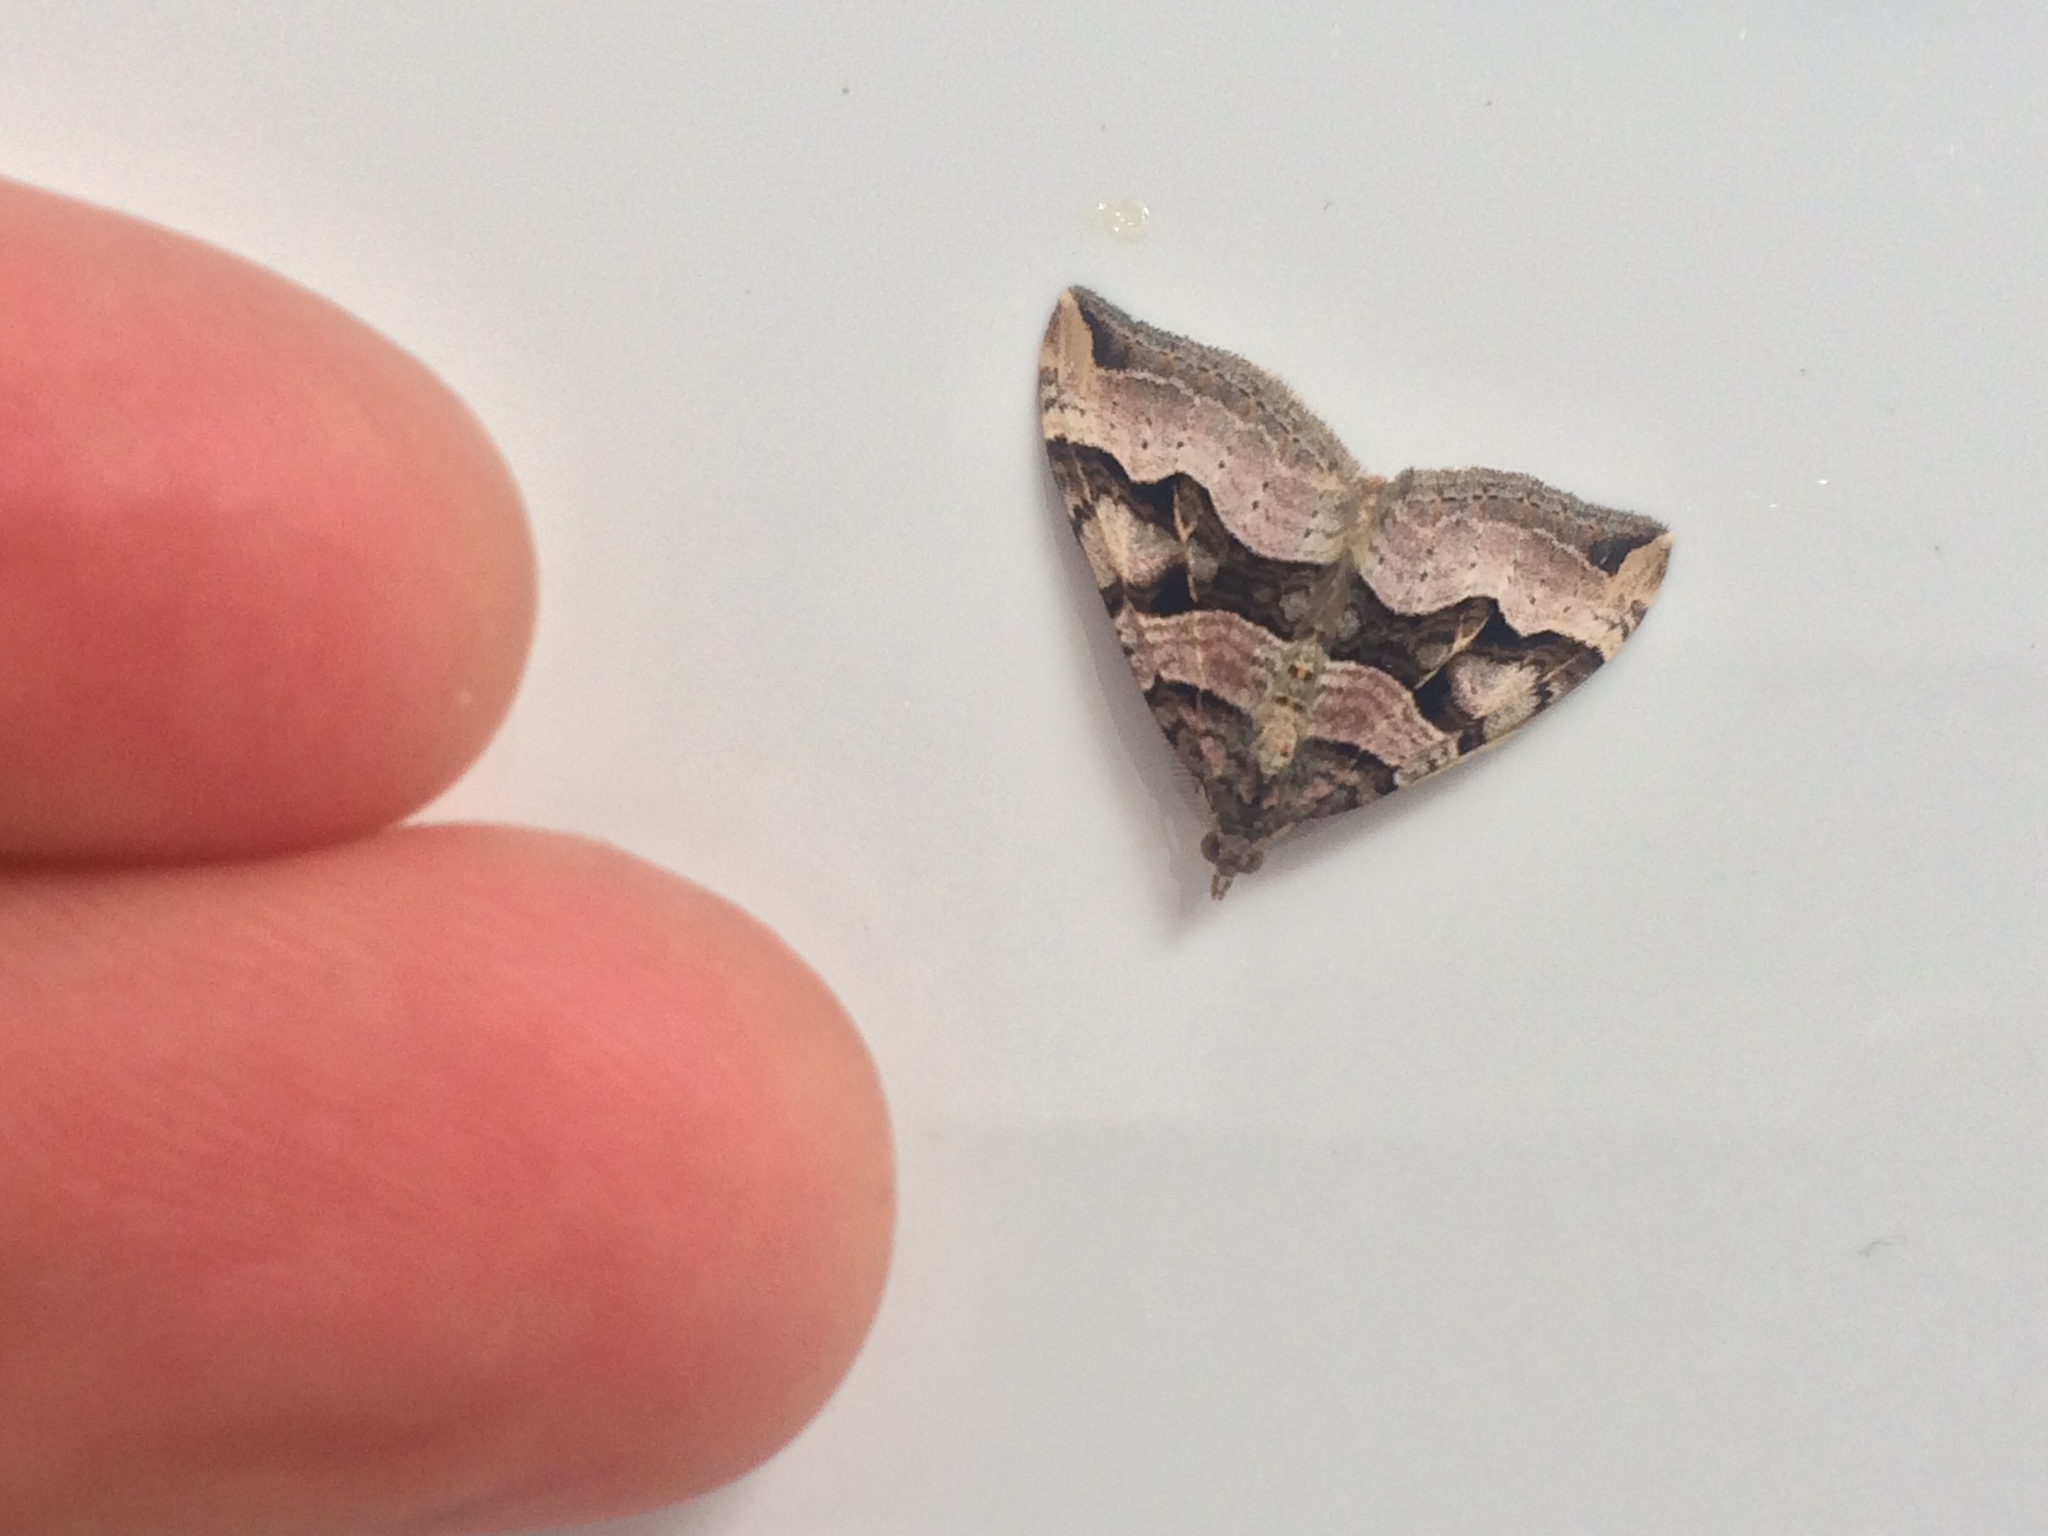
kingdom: Animalia
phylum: Arthropoda
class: Insecta
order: Lepidoptera
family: Geometridae
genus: Xanthorhoe
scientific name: Xanthorhoe semifissata
